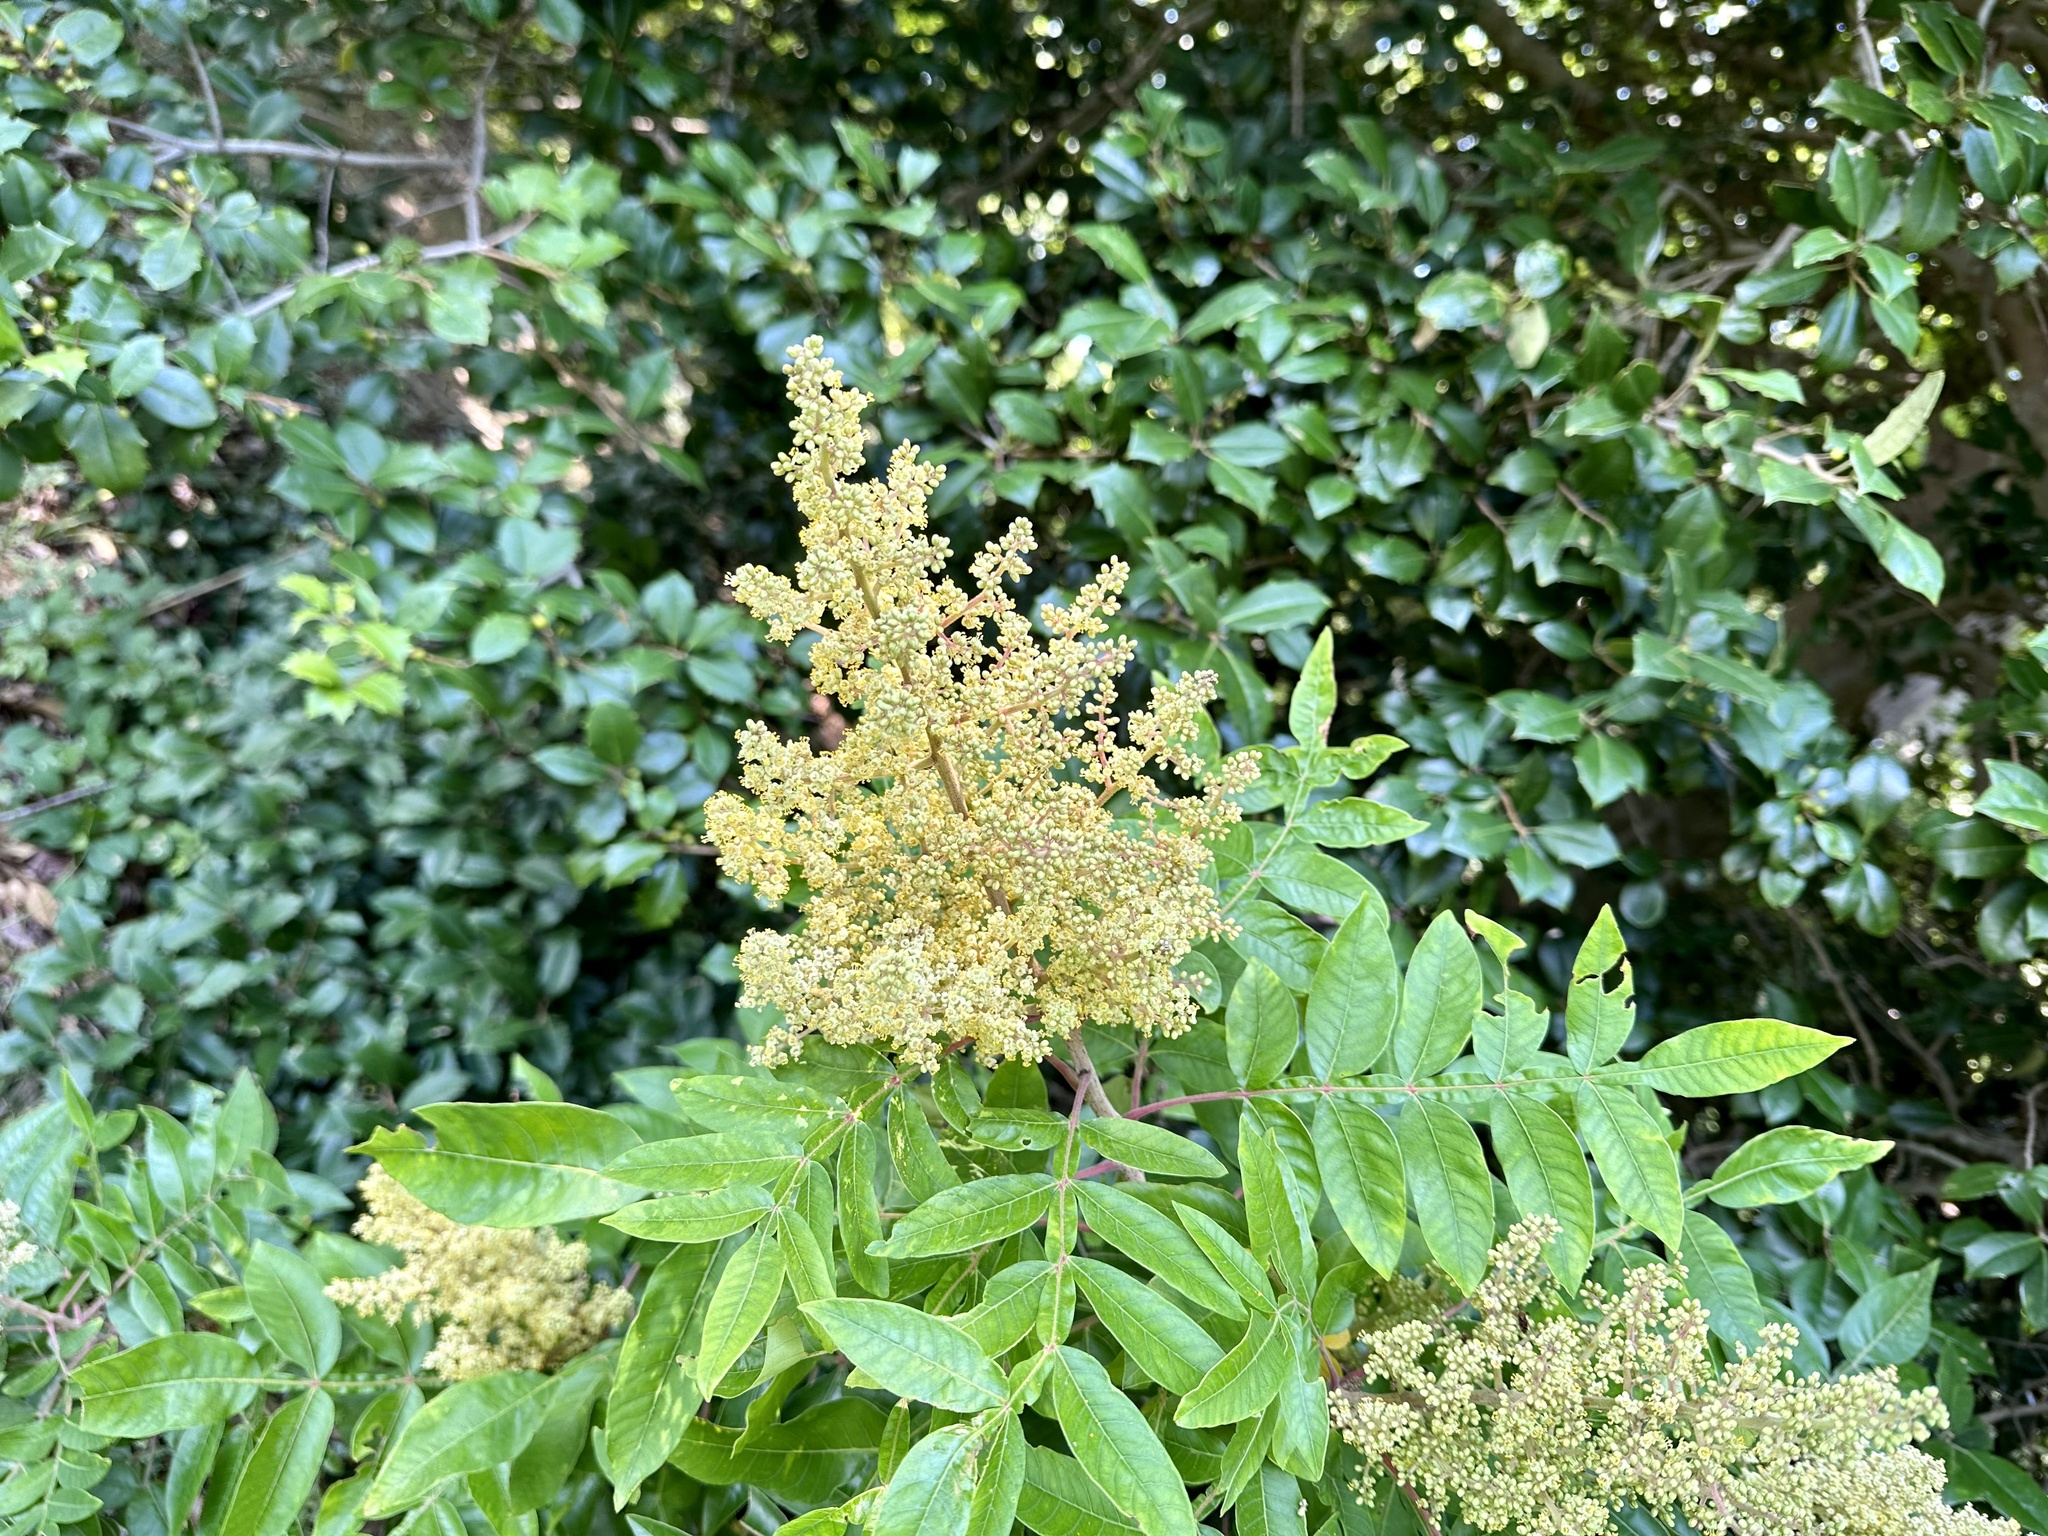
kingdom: Plantae
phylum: Tracheophyta
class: Magnoliopsida
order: Sapindales
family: Anacardiaceae
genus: Rhus
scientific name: Rhus copallina
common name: Shining sumac
